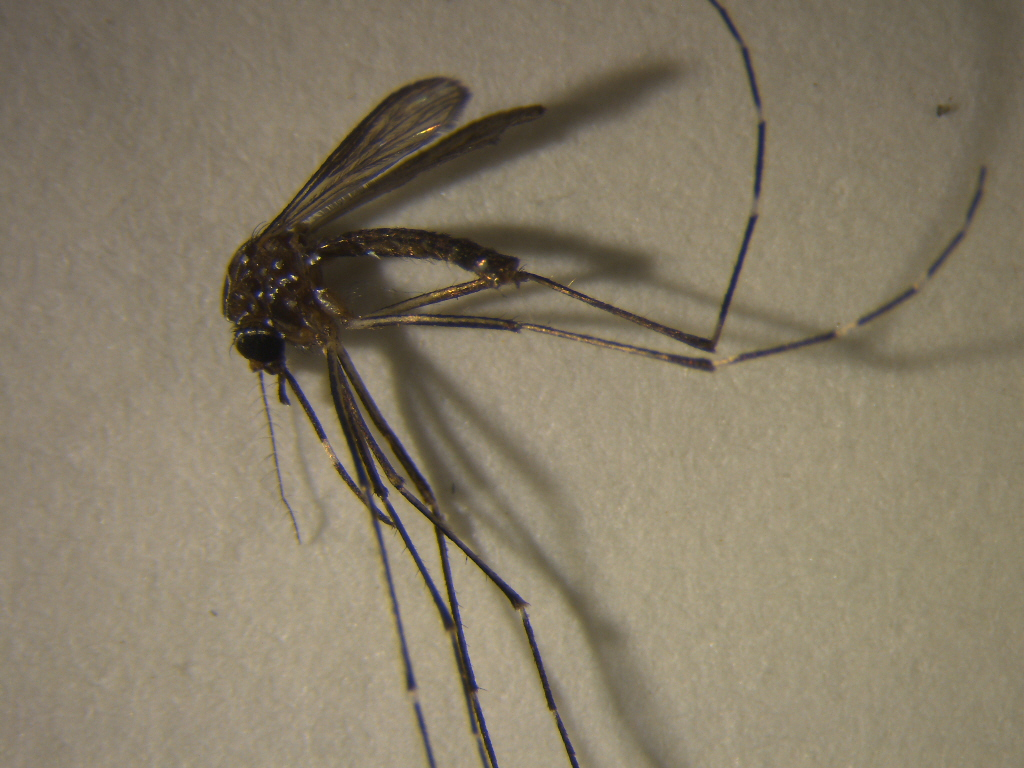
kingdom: Animalia
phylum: Arthropoda
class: Insecta
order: Diptera
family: Culicidae
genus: Aedes
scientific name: Aedes notoscriptus
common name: Australian backyard mosquito
